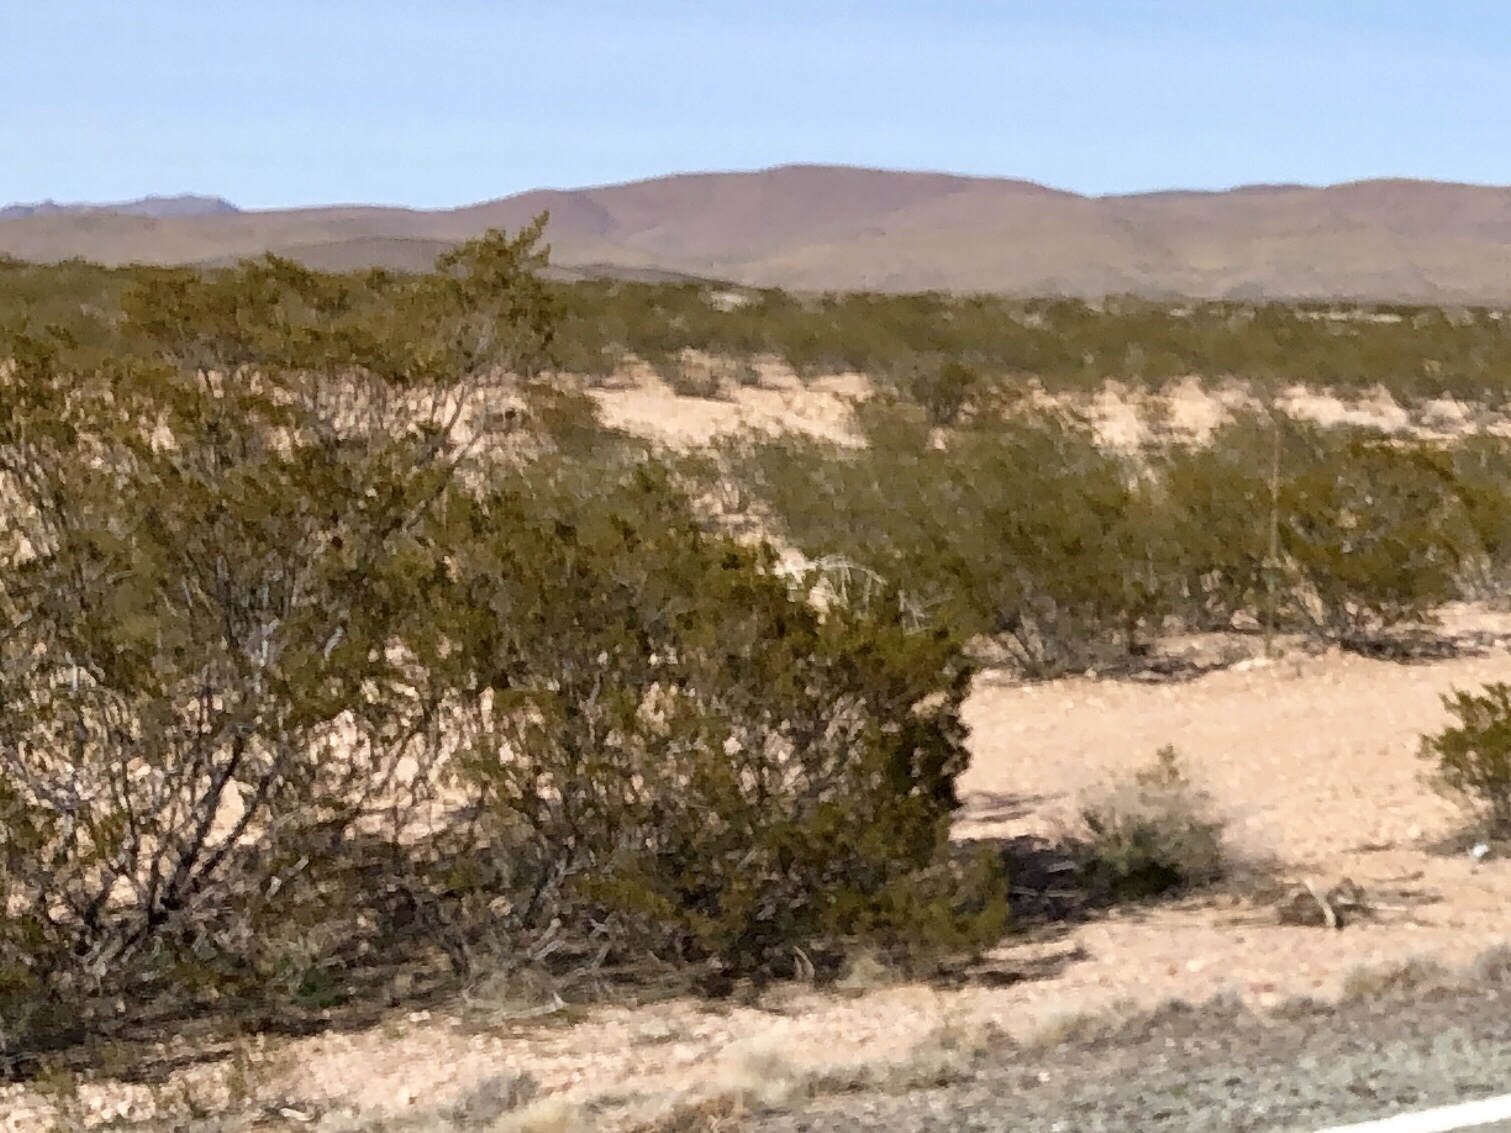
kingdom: Plantae
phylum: Tracheophyta
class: Magnoliopsida
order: Zygophyllales
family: Zygophyllaceae
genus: Larrea
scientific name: Larrea tridentata
